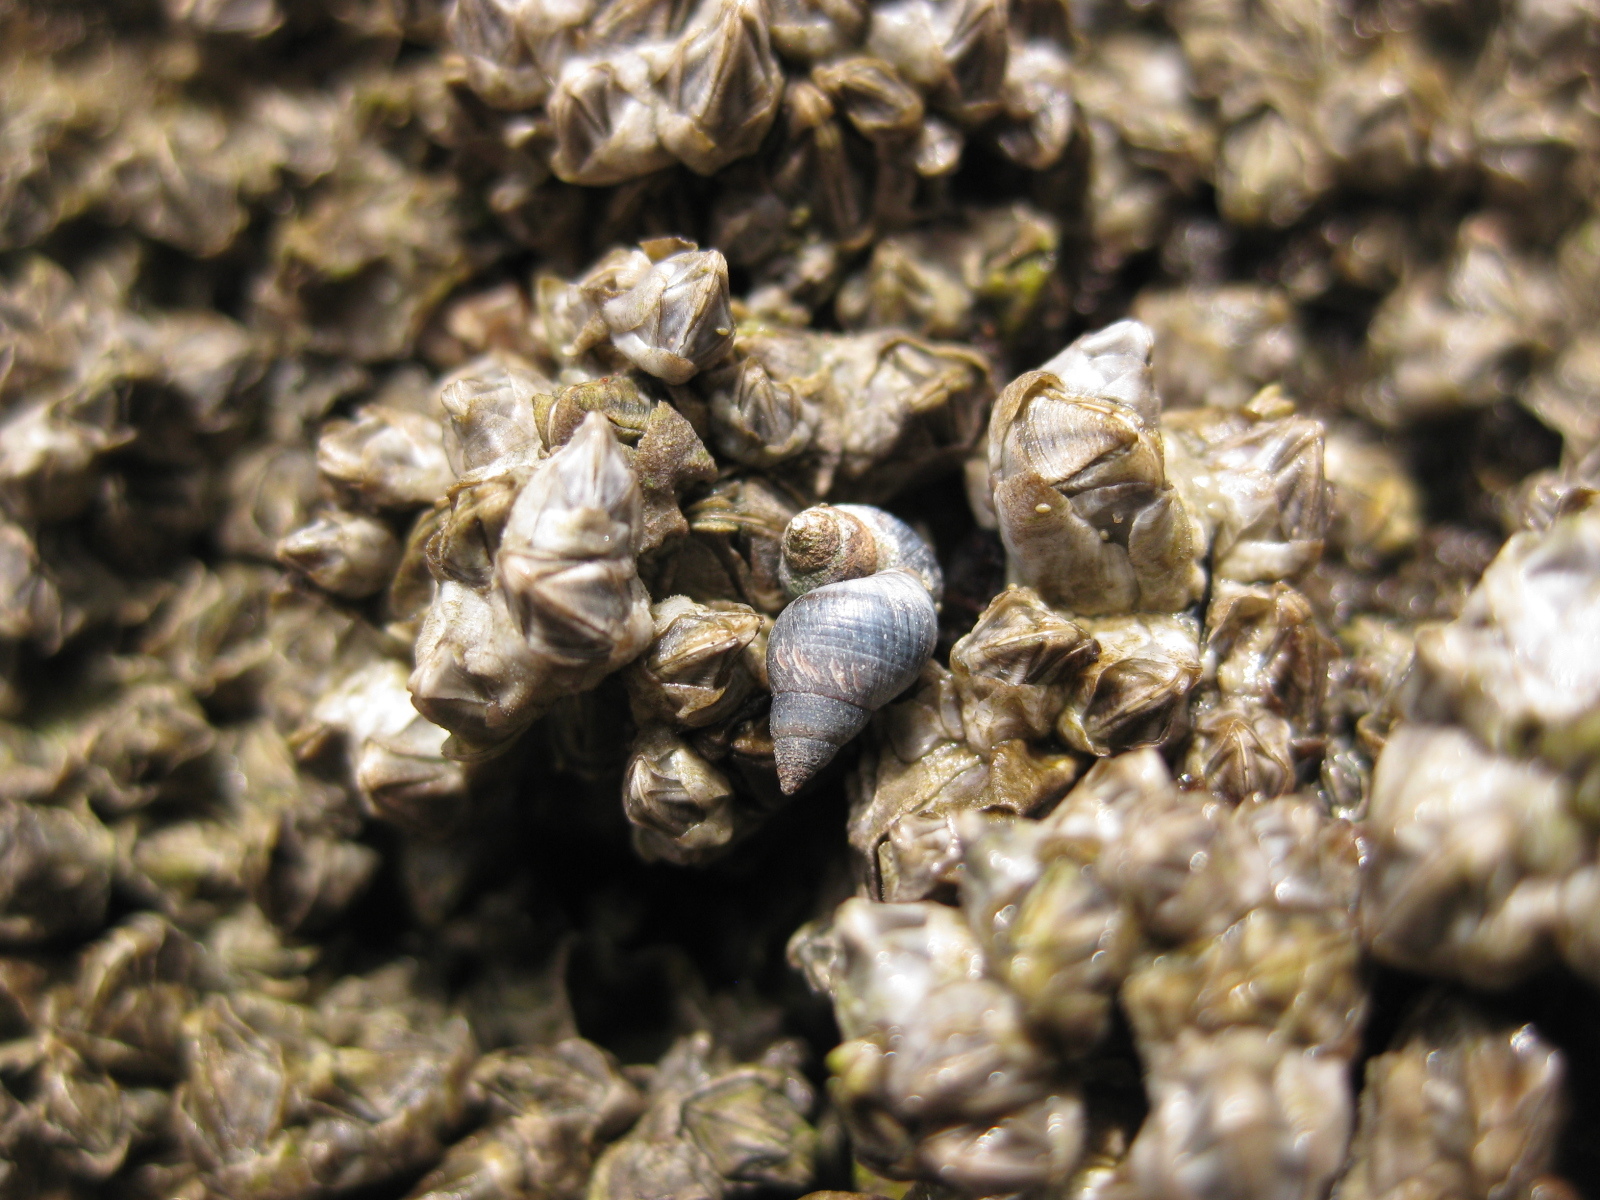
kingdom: Animalia
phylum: Mollusca
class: Gastropoda
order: Littorinimorpha
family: Littorinidae
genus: Austrolittorina
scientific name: Austrolittorina antipodum
